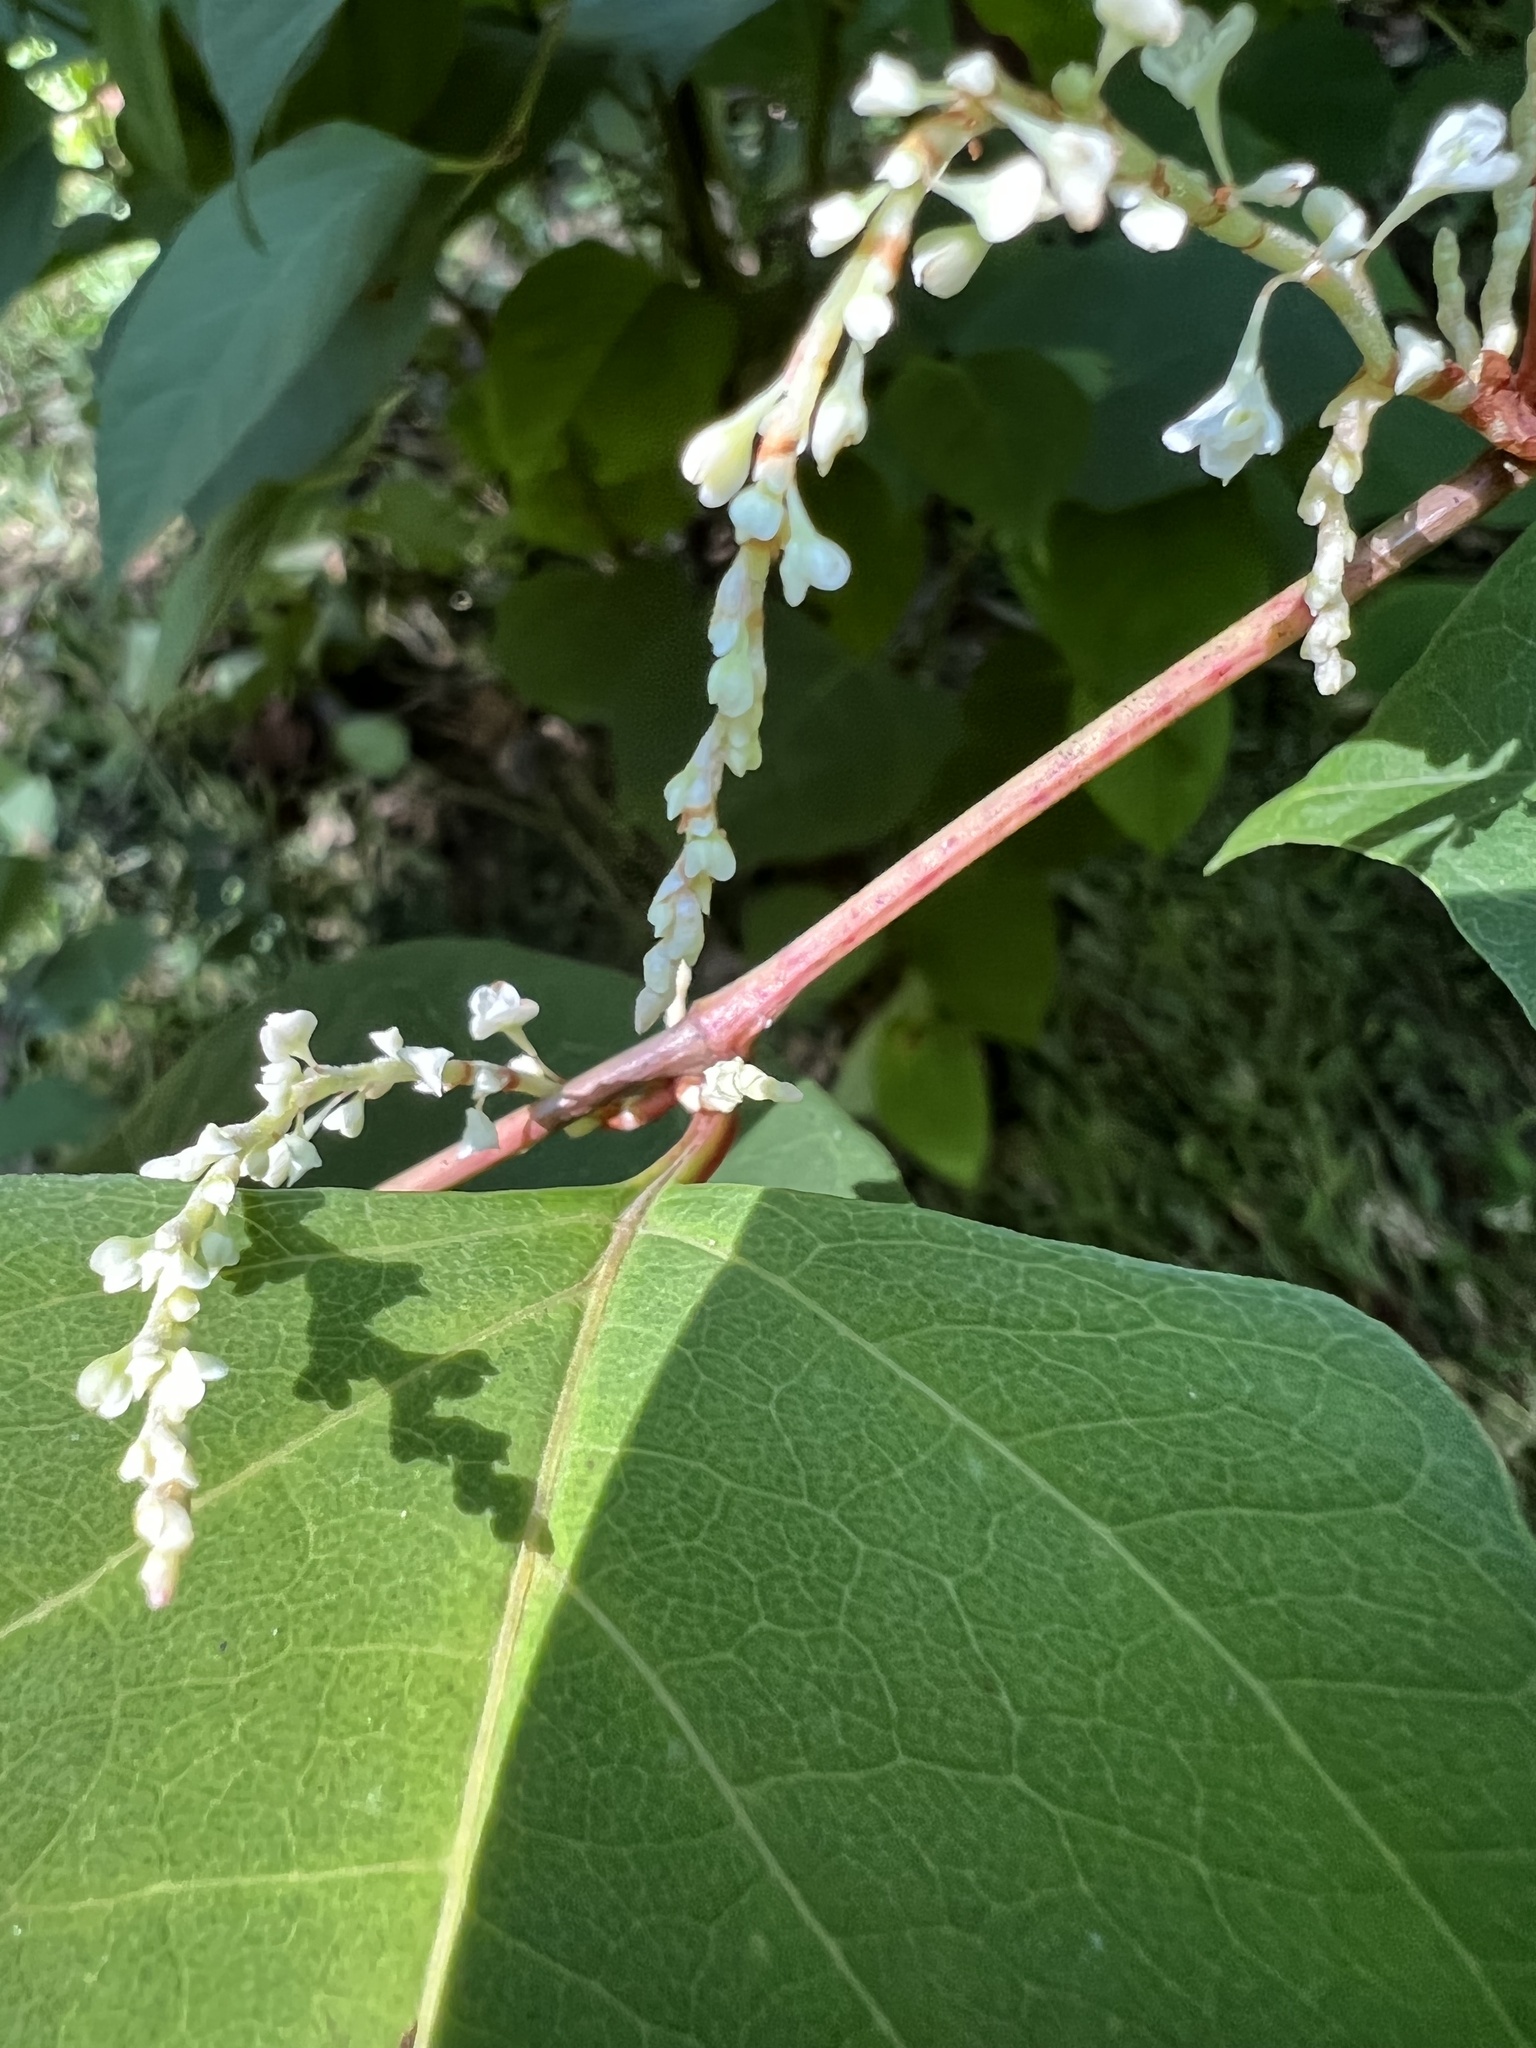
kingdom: Plantae
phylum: Tracheophyta
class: Magnoliopsida
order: Caryophyllales
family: Polygonaceae
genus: Reynoutria
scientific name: Reynoutria japonica
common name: Japanese knotweed
